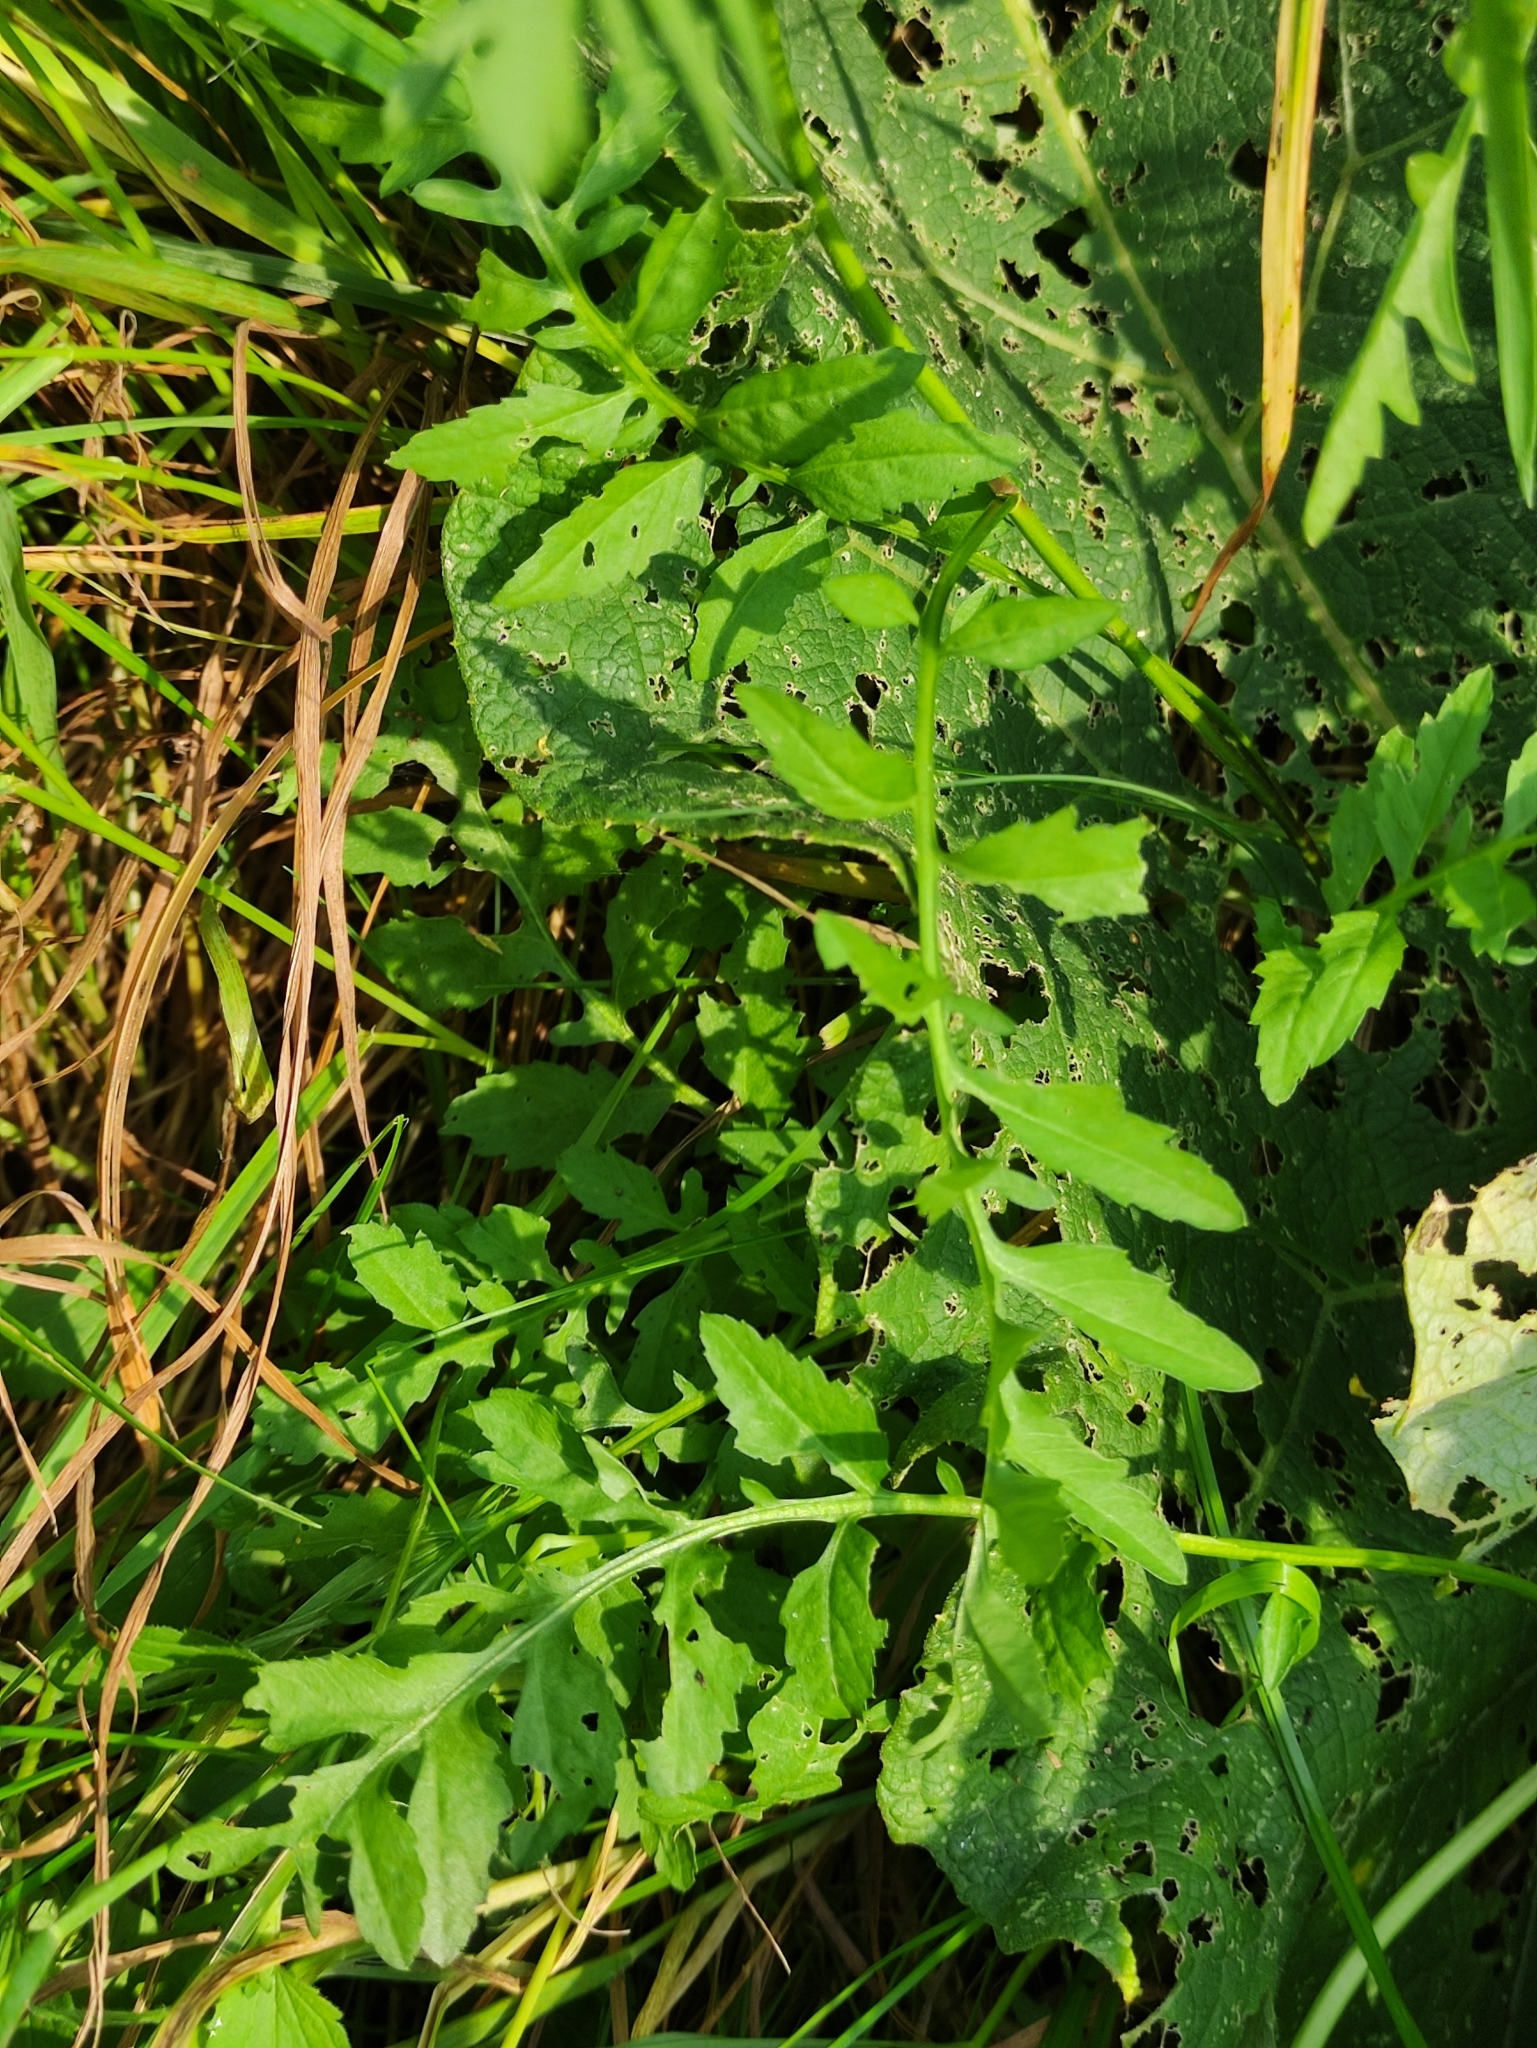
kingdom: Plantae
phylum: Tracheophyta
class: Magnoliopsida
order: Brassicales
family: Brassicaceae
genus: Rorippa
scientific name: Rorippa sylvestris
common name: Creeping yellowcress
